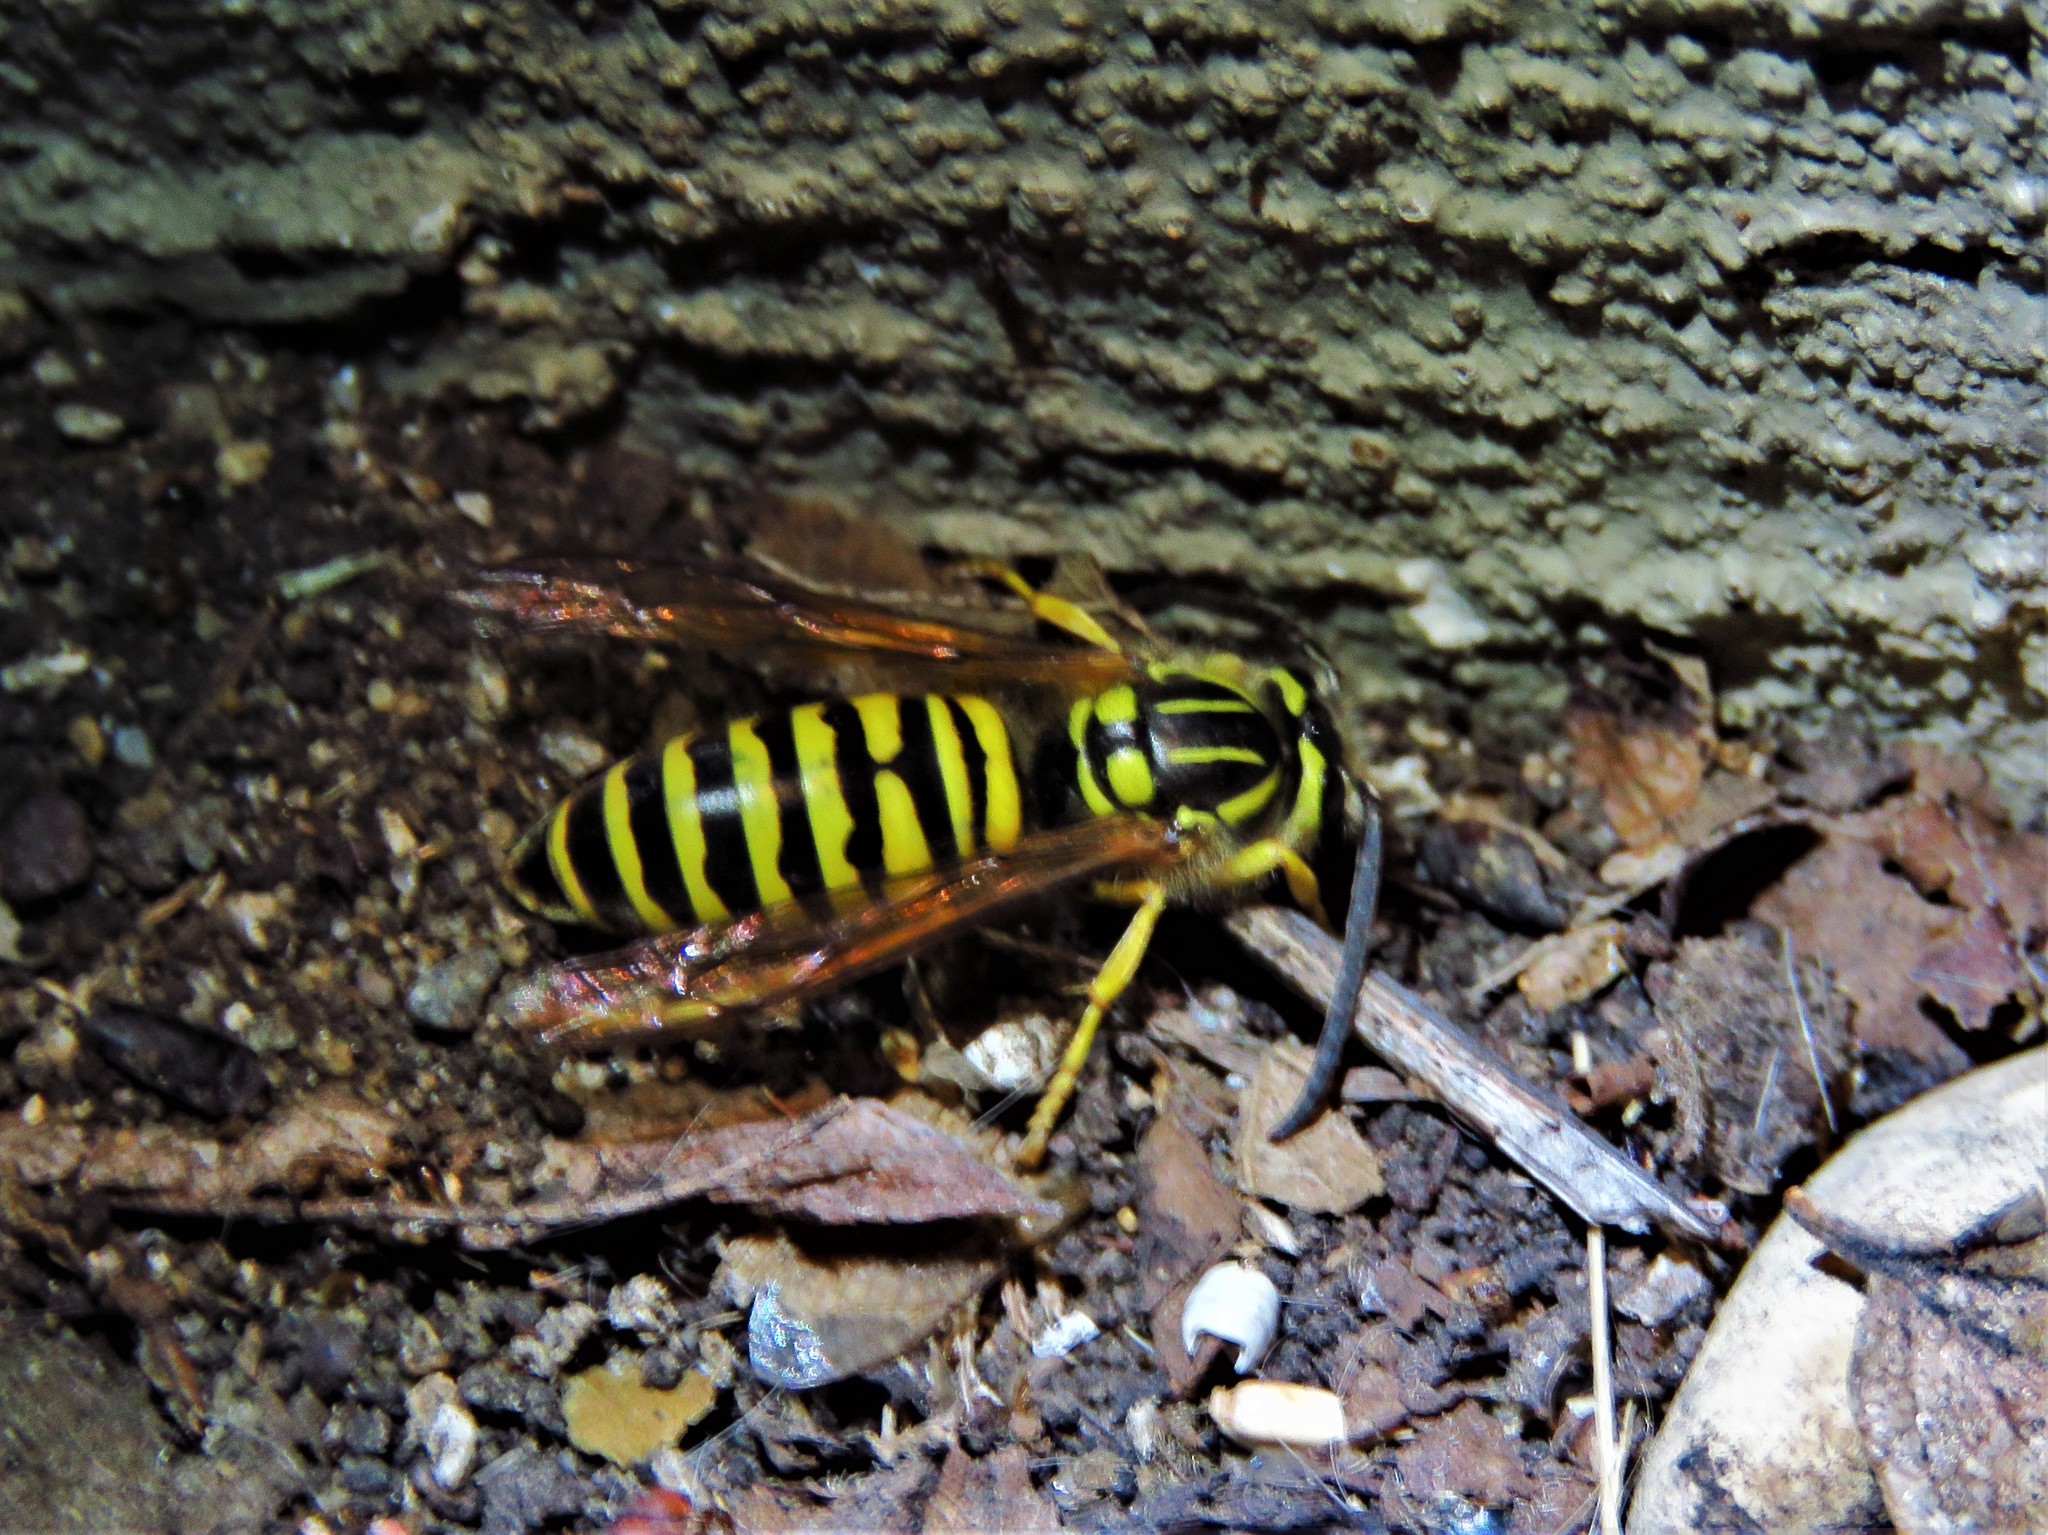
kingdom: Animalia
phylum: Arthropoda
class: Insecta
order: Hymenoptera
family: Vespidae
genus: Vespula
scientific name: Vespula squamosa
